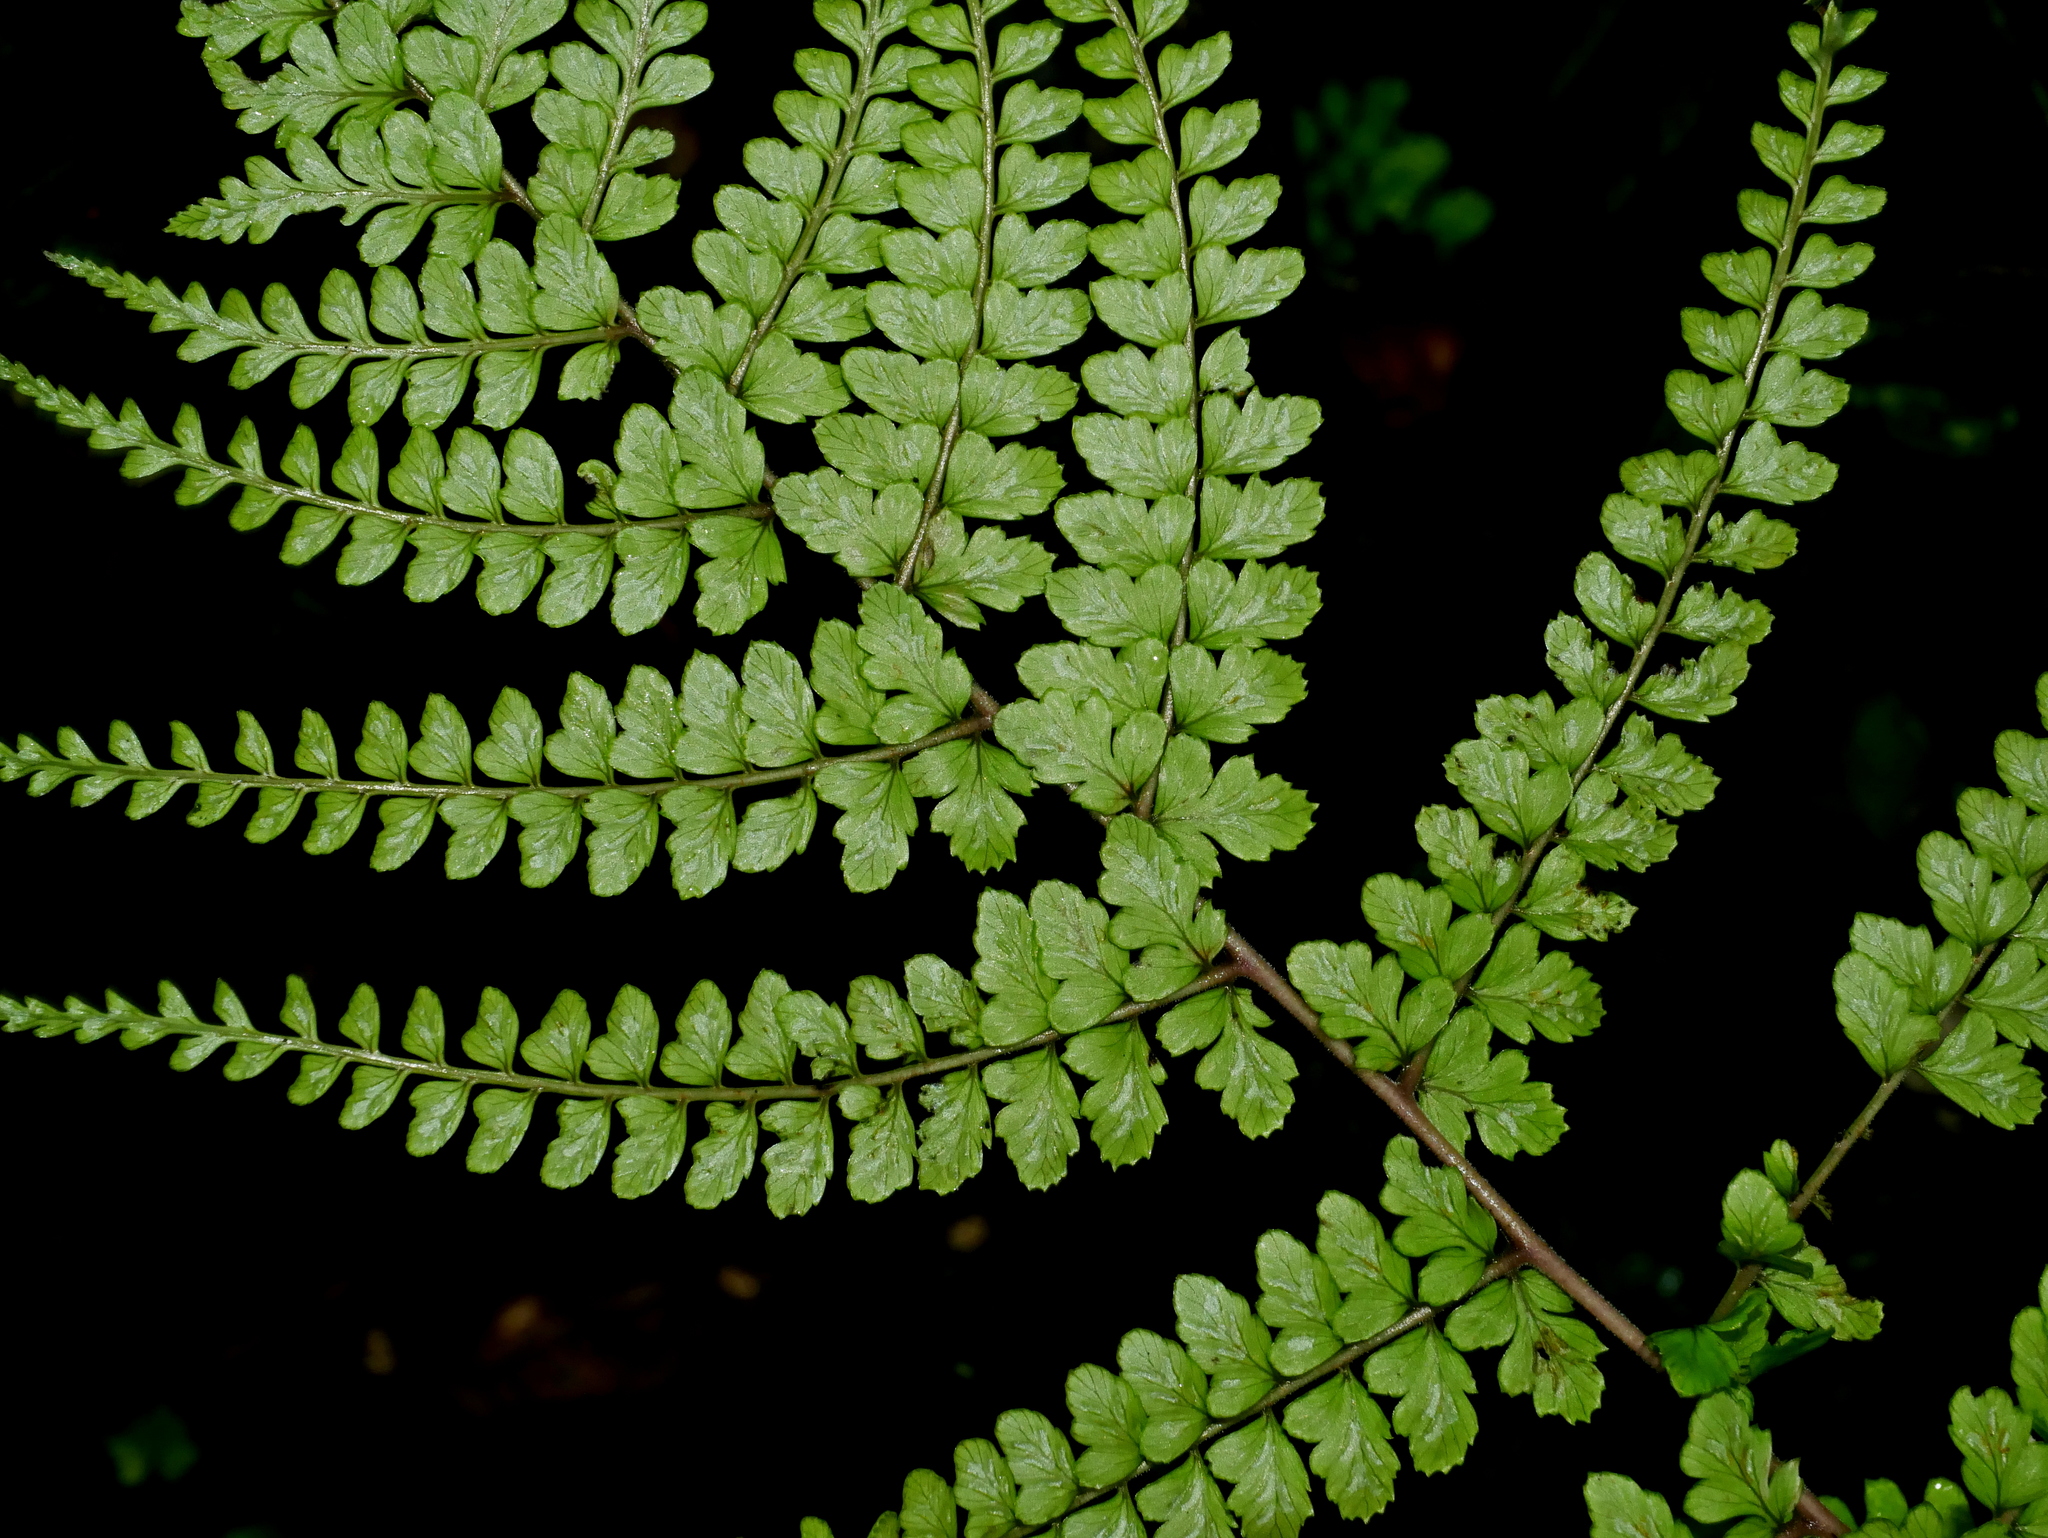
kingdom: Plantae
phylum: Tracheophyta
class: Polypodiopsida
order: Polypodiales
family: Athyriaceae
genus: Athyrium
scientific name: Athyrium subrigescens
